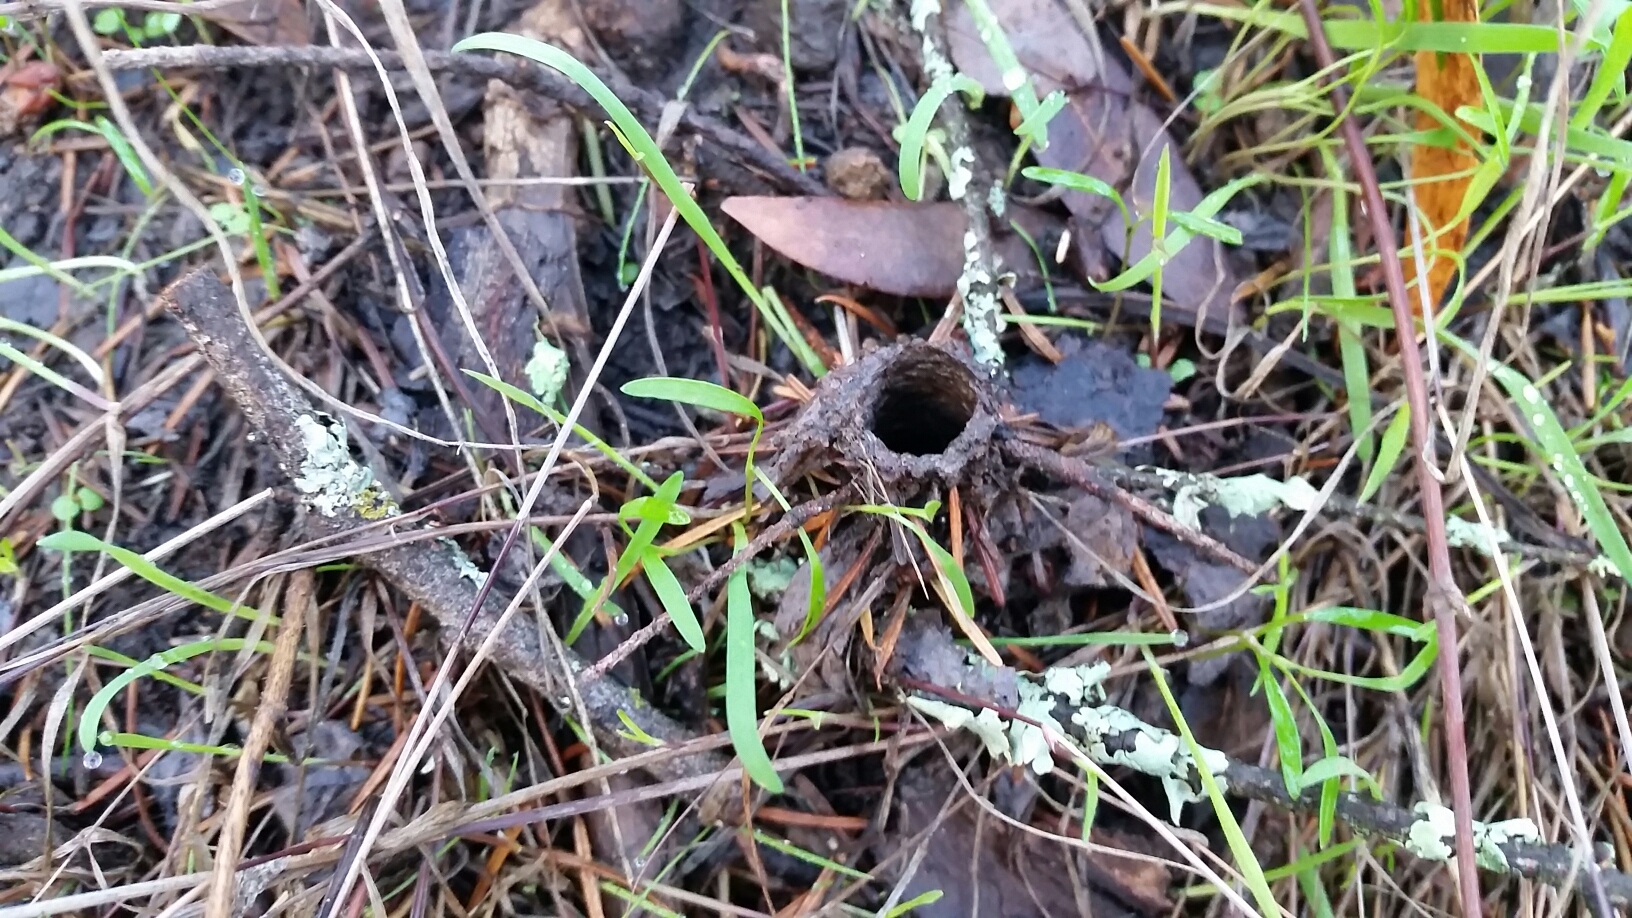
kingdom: Animalia
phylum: Arthropoda
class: Arachnida
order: Araneae
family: Antrodiaetidae
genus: Atypoides
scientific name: Atypoides riversi
